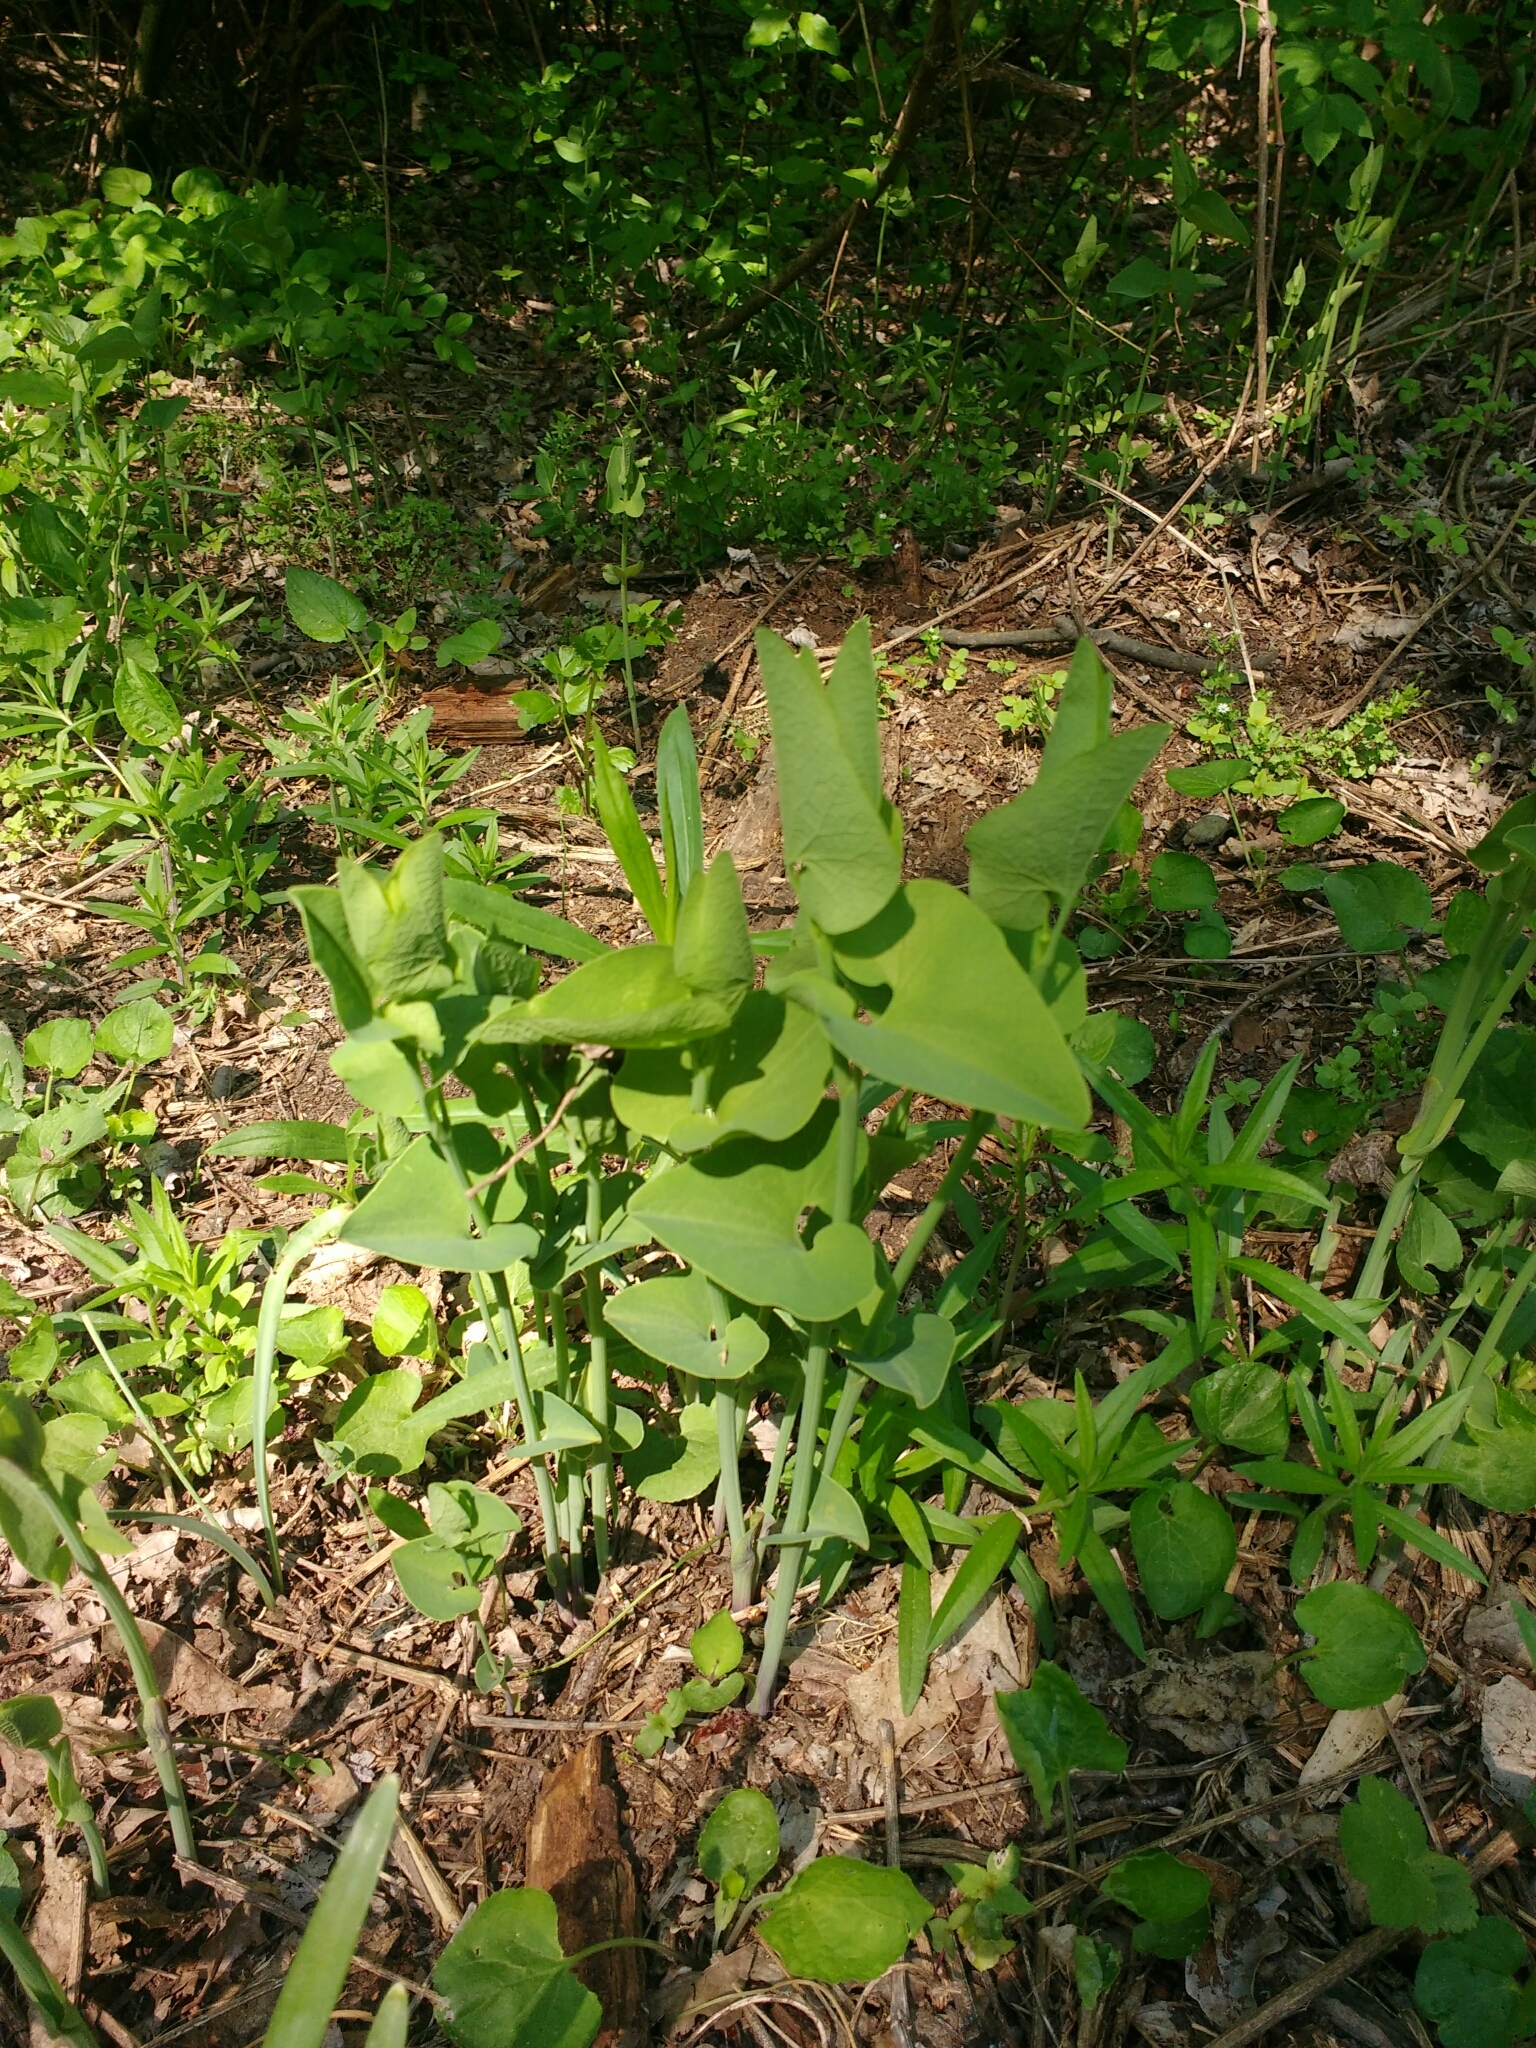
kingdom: Plantae
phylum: Tracheophyta
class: Magnoliopsida
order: Piperales
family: Aristolochiaceae
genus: Aristolochia
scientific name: Aristolochia clematitis
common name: Birthwort
